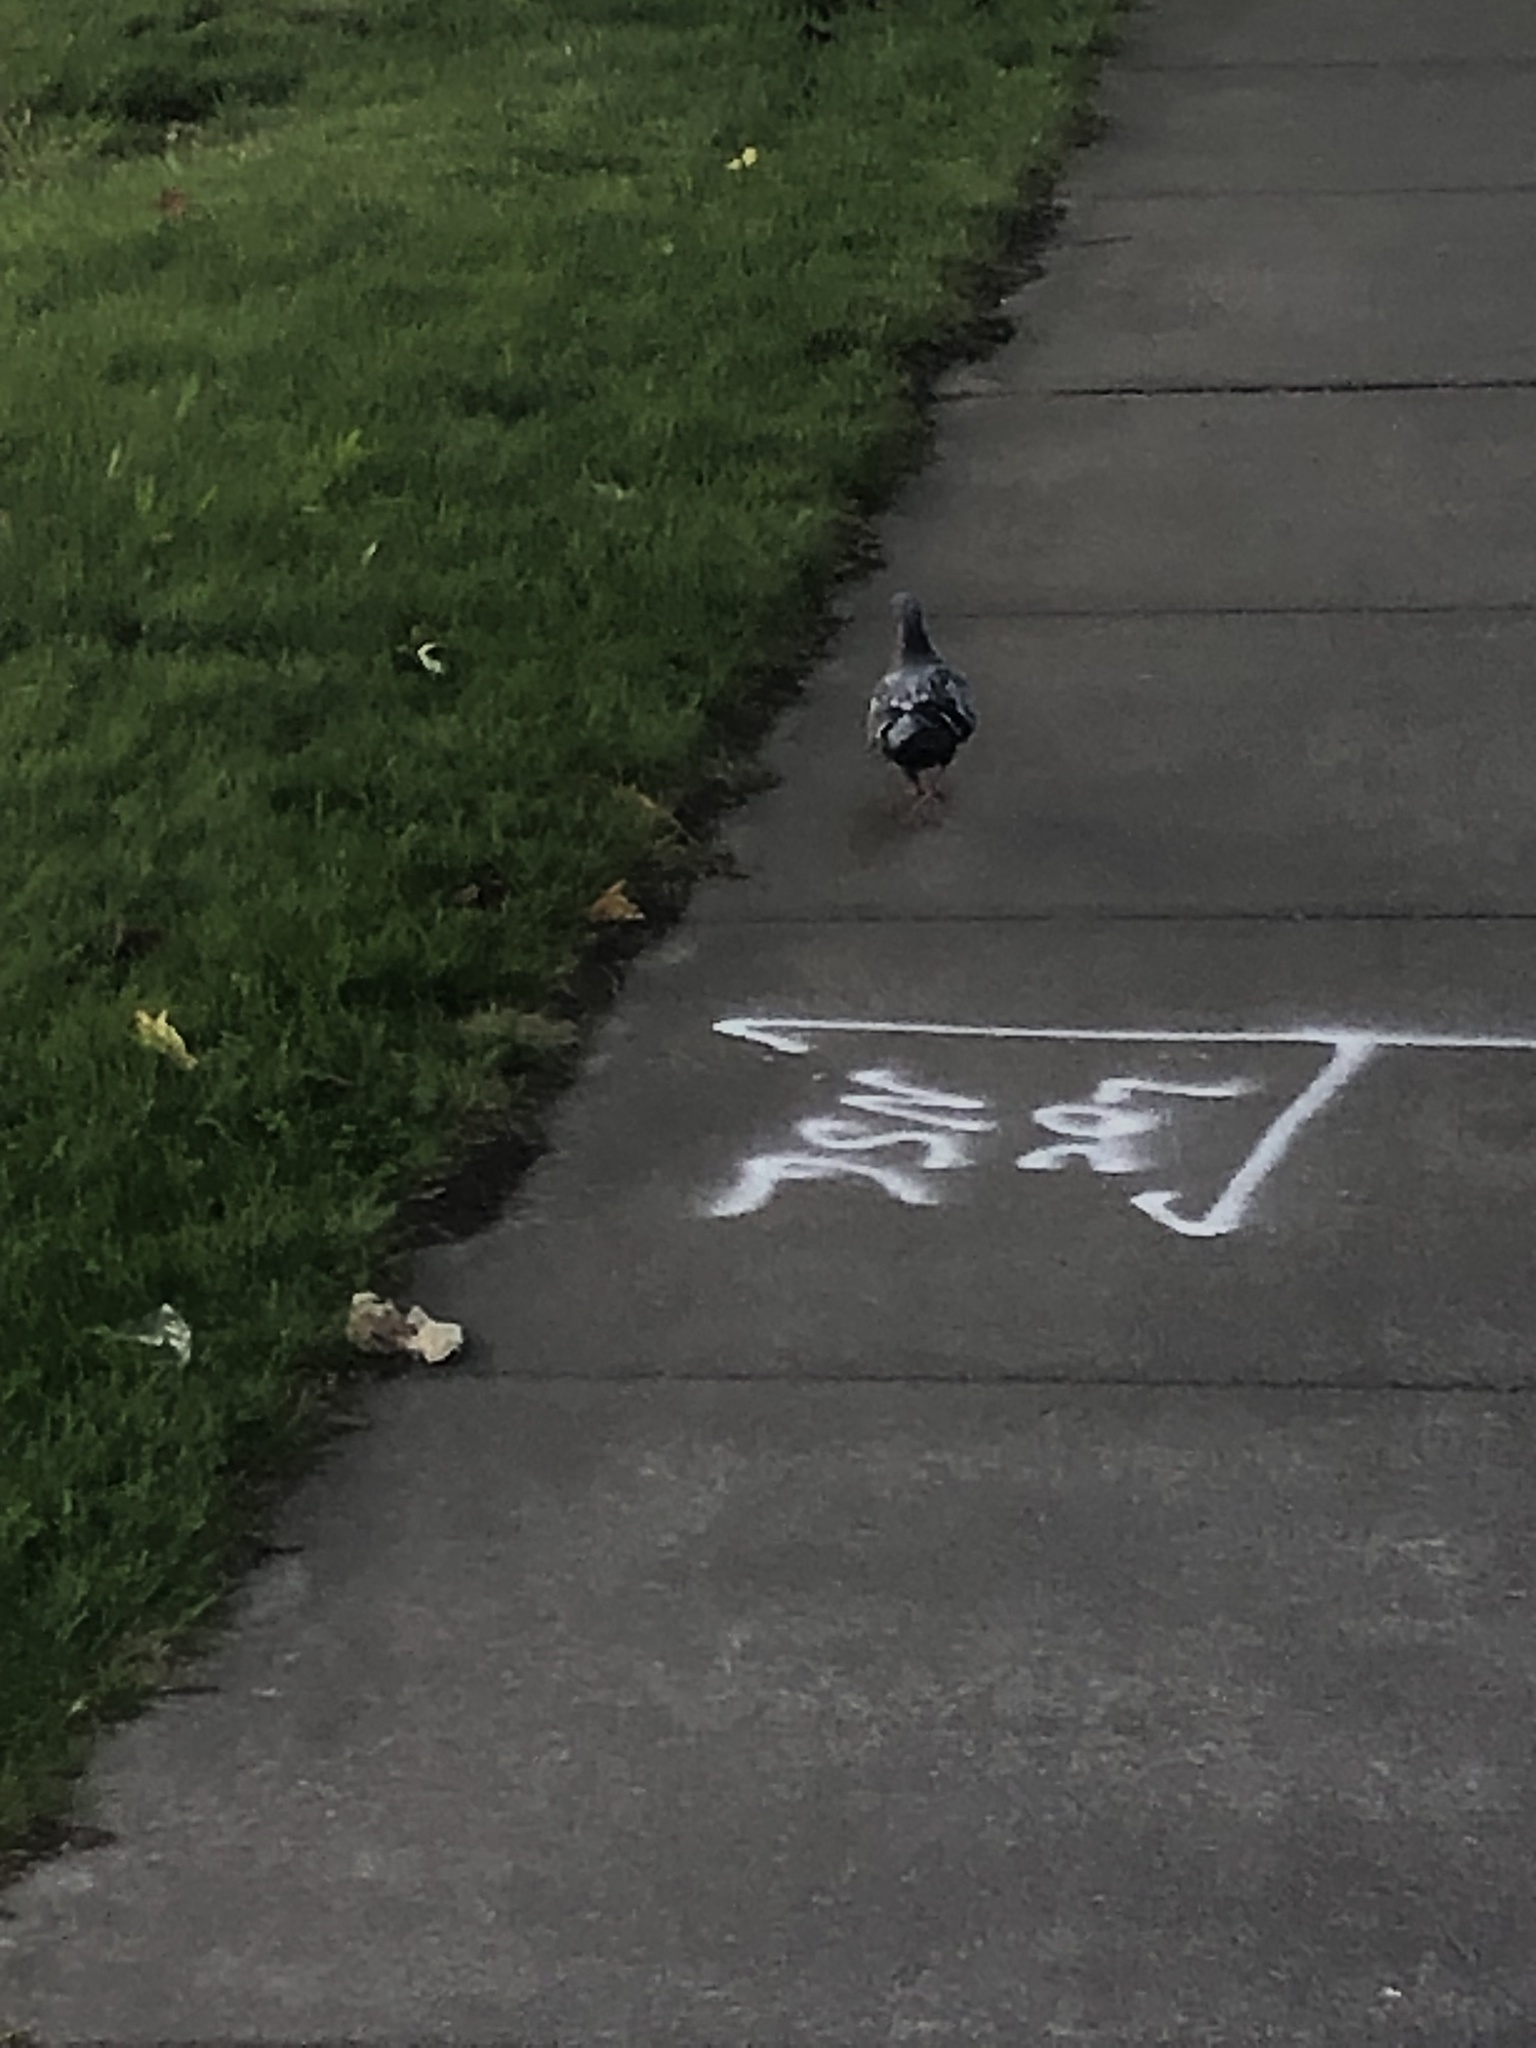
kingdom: Animalia
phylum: Chordata
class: Aves
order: Columbiformes
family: Columbidae
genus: Columba
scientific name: Columba livia
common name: Rock pigeon
